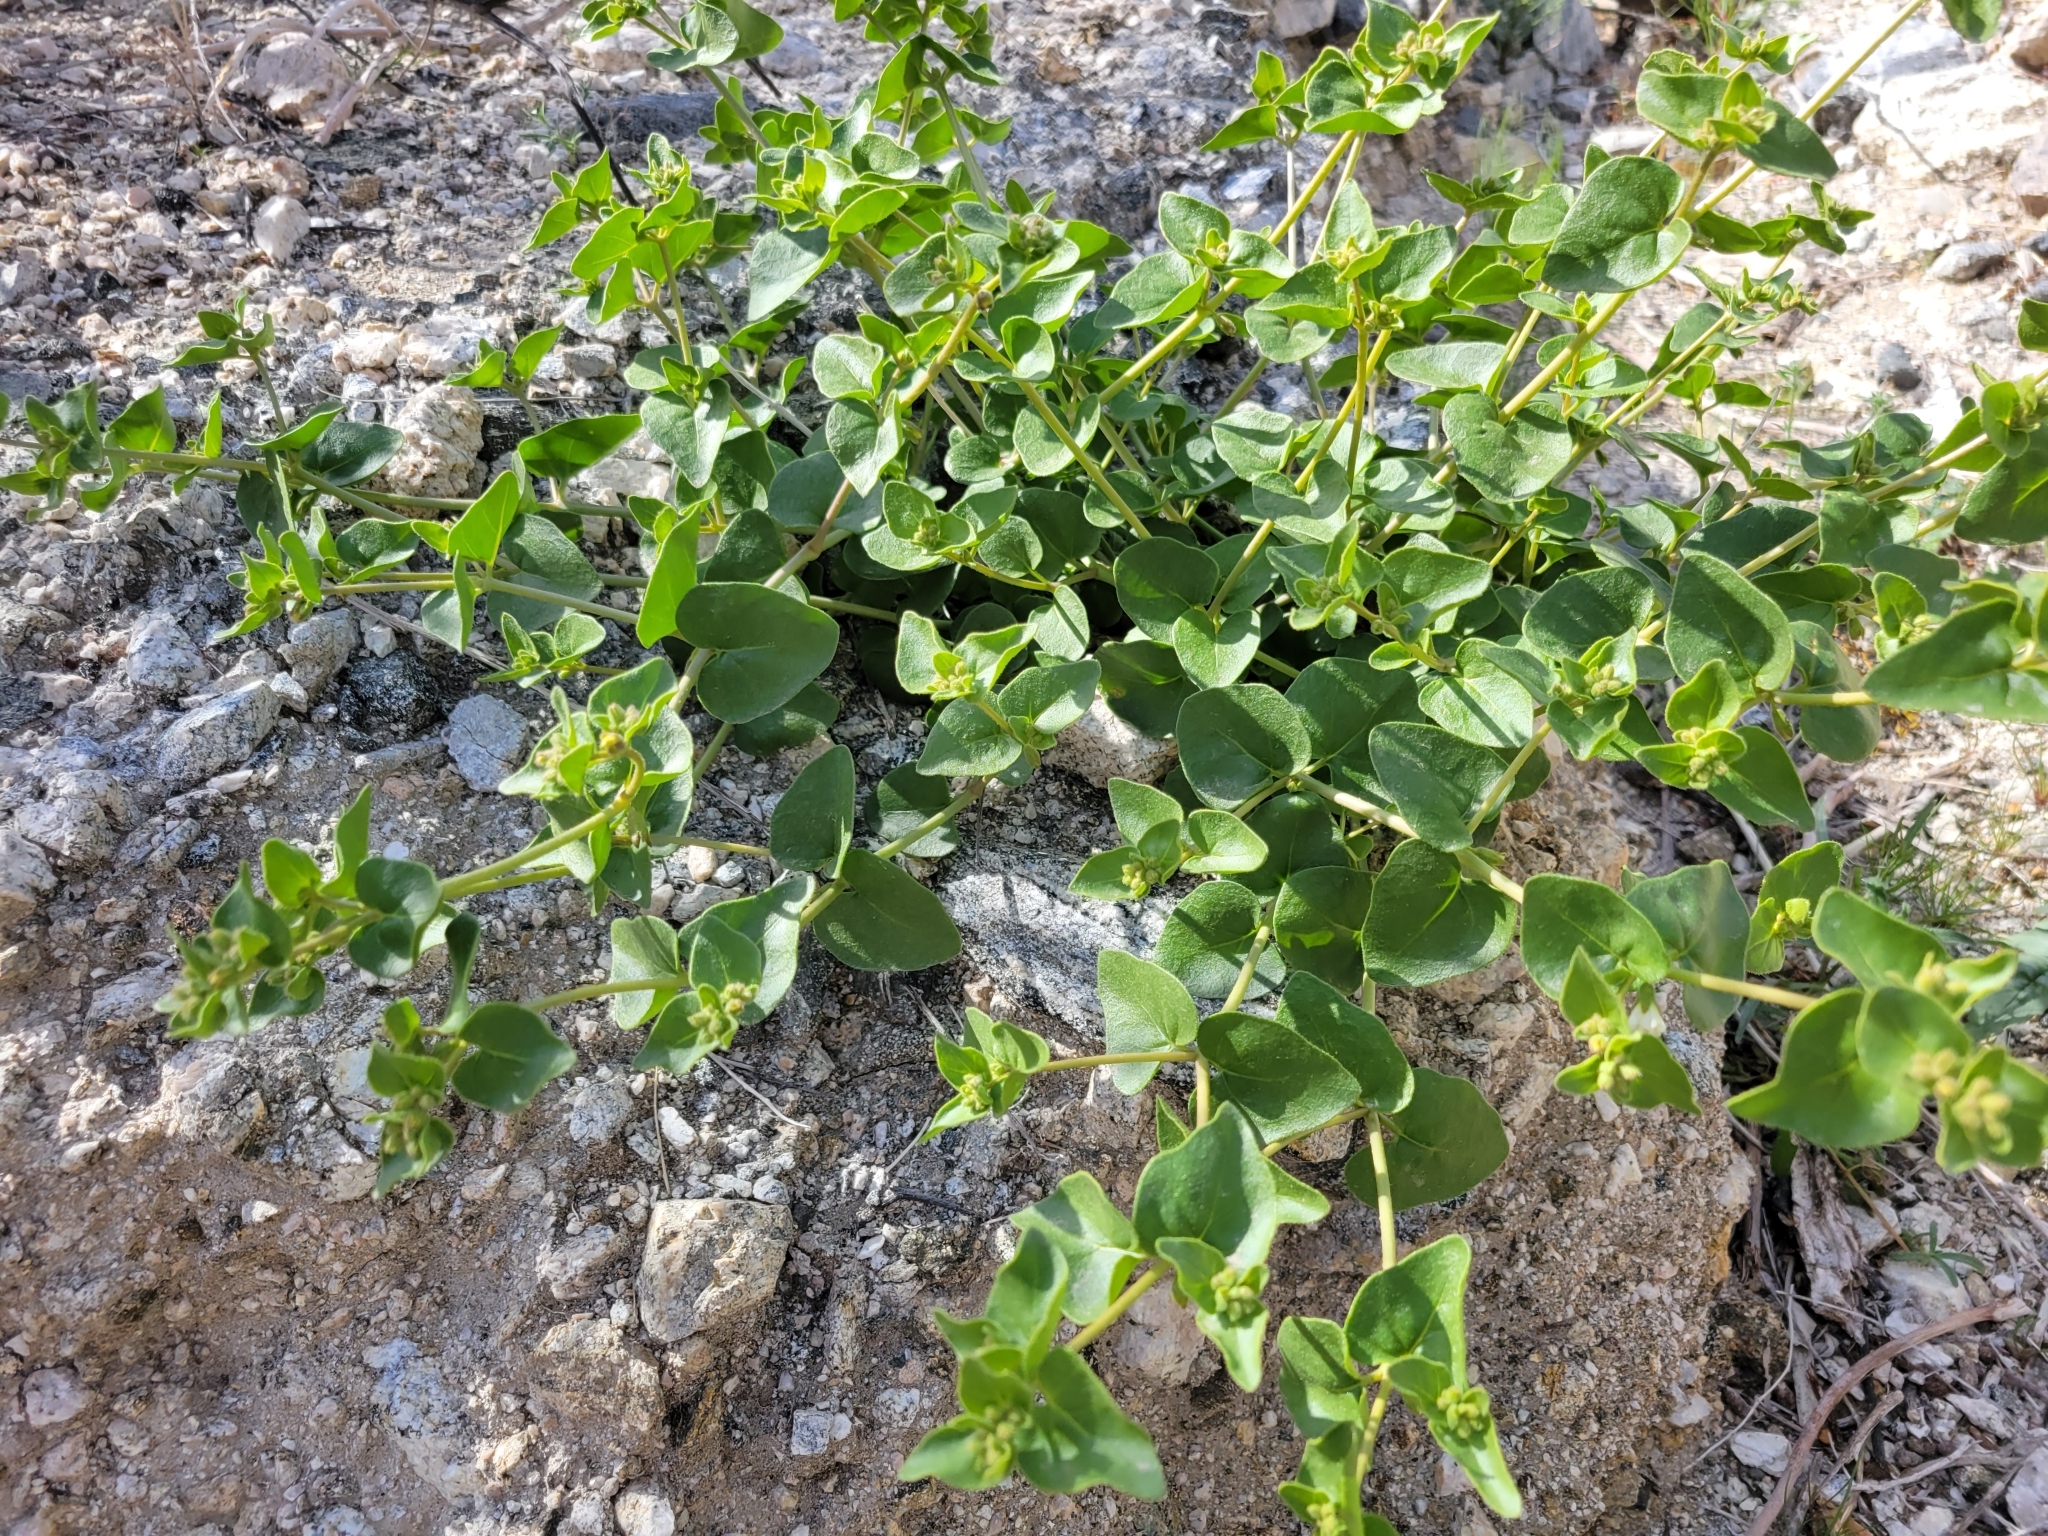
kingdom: Plantae
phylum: Tracheophyta
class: Magnoliopsida
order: Caryophyllales
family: Nyctaginaceae
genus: Mirabilis
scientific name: Mirabilis laevis
